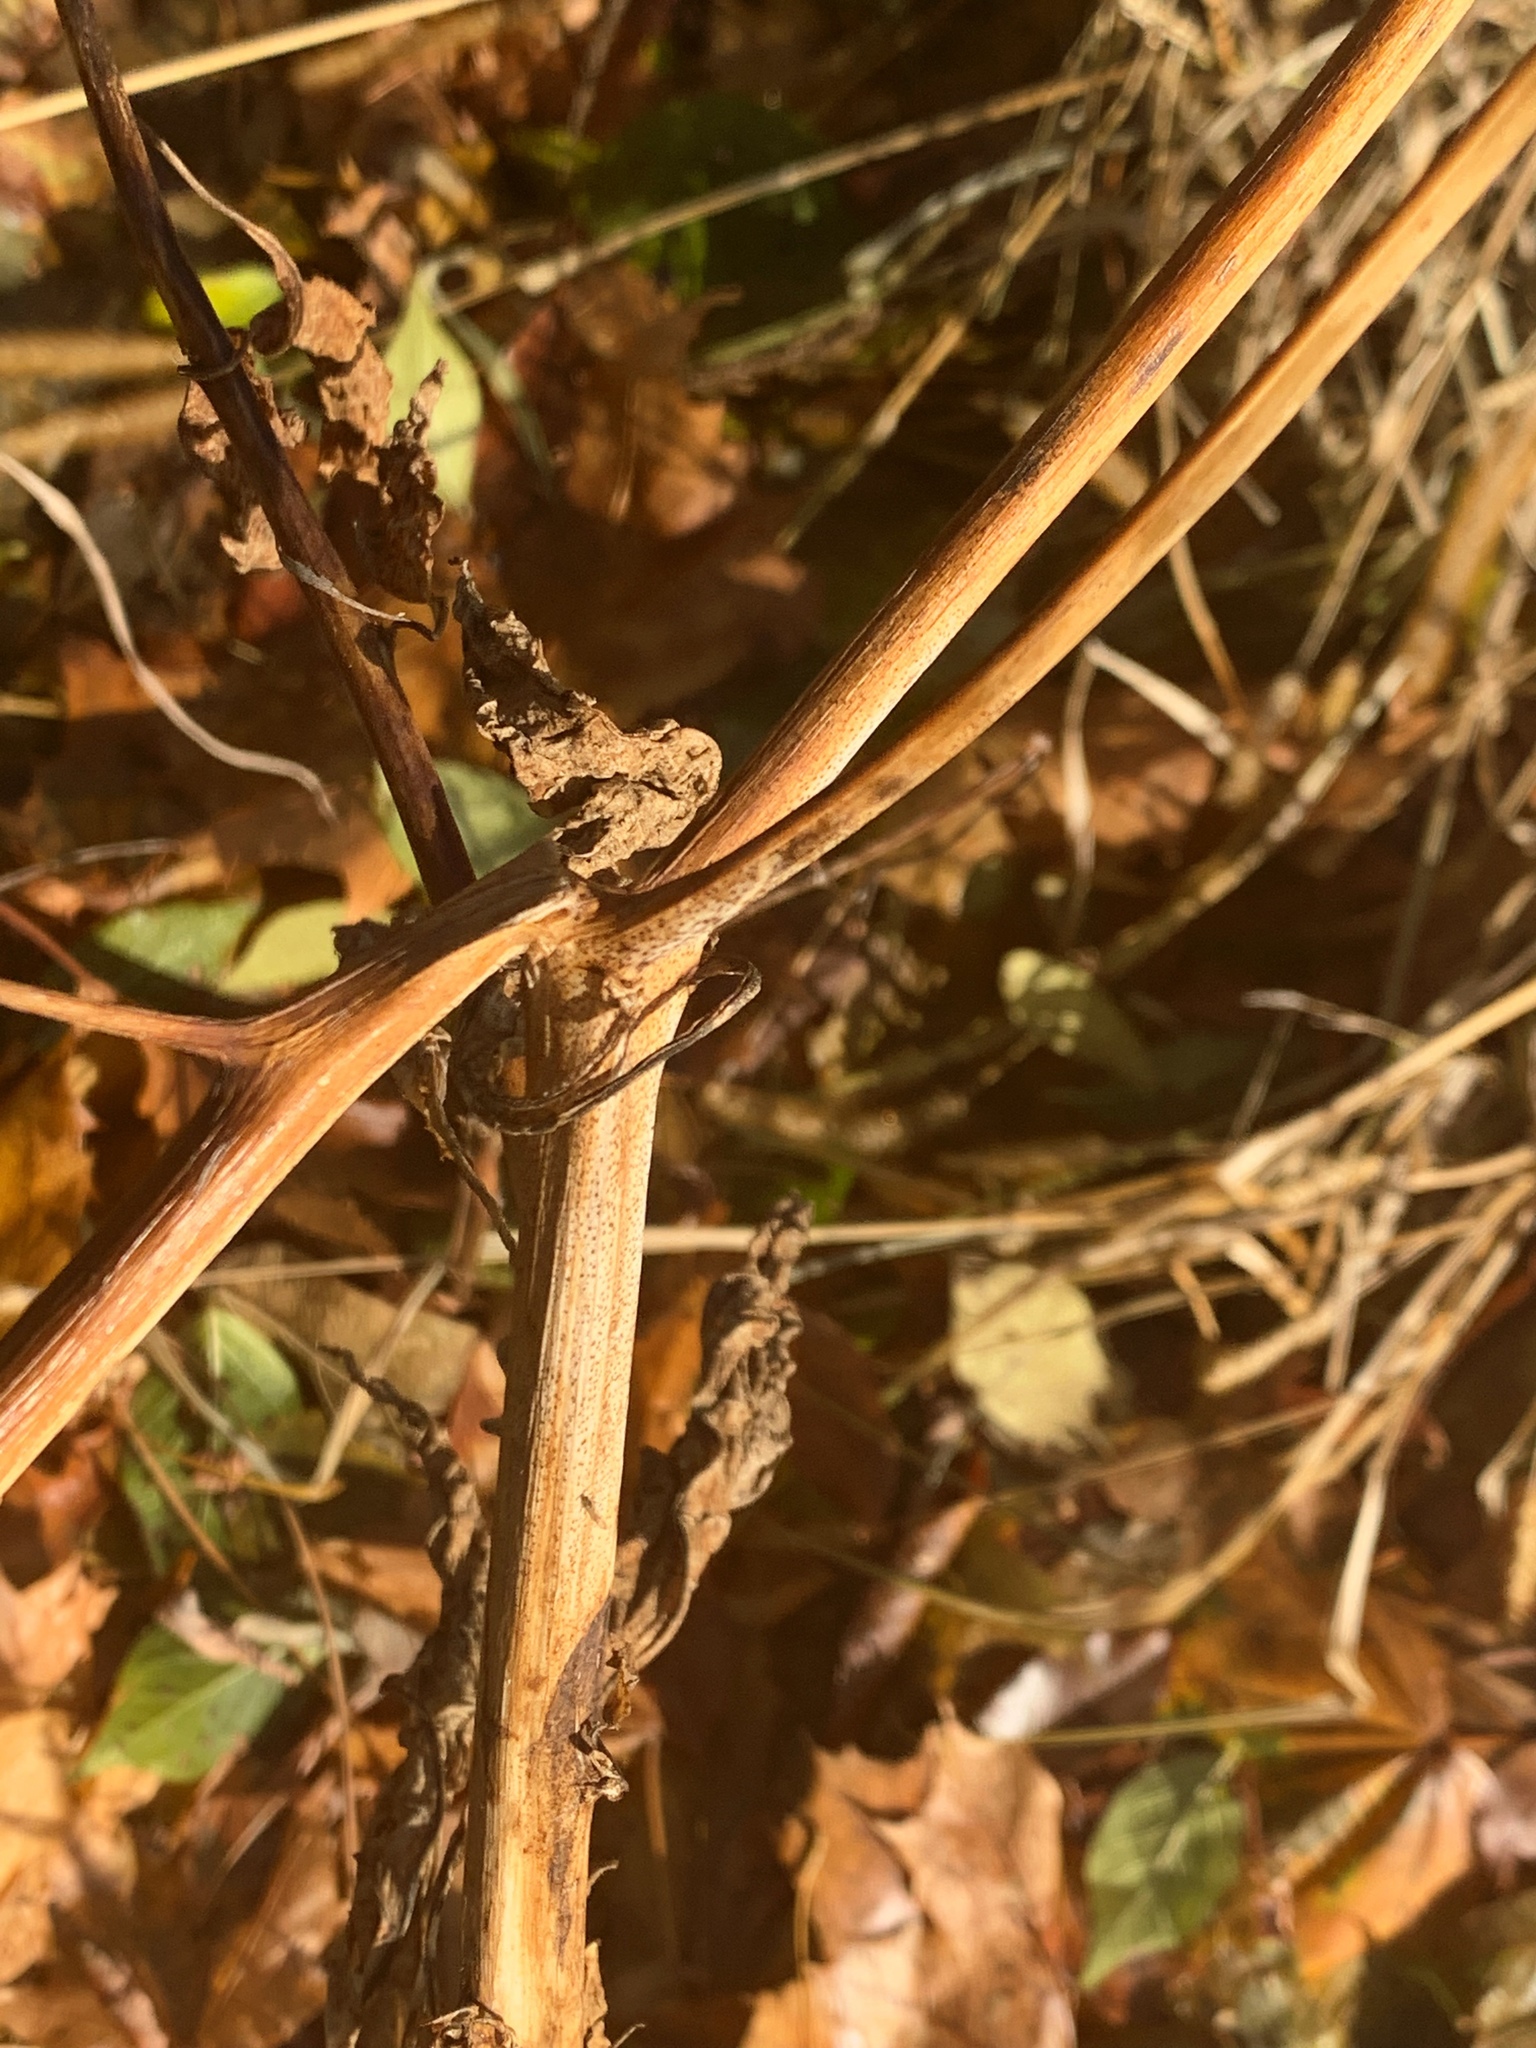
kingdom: Plantae
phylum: Tracheophyta
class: Magnoliopsida
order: Caryophyllales
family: Phytolaccaceae
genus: Phytolacca
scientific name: Phytolacca americana
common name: American pokeweed
